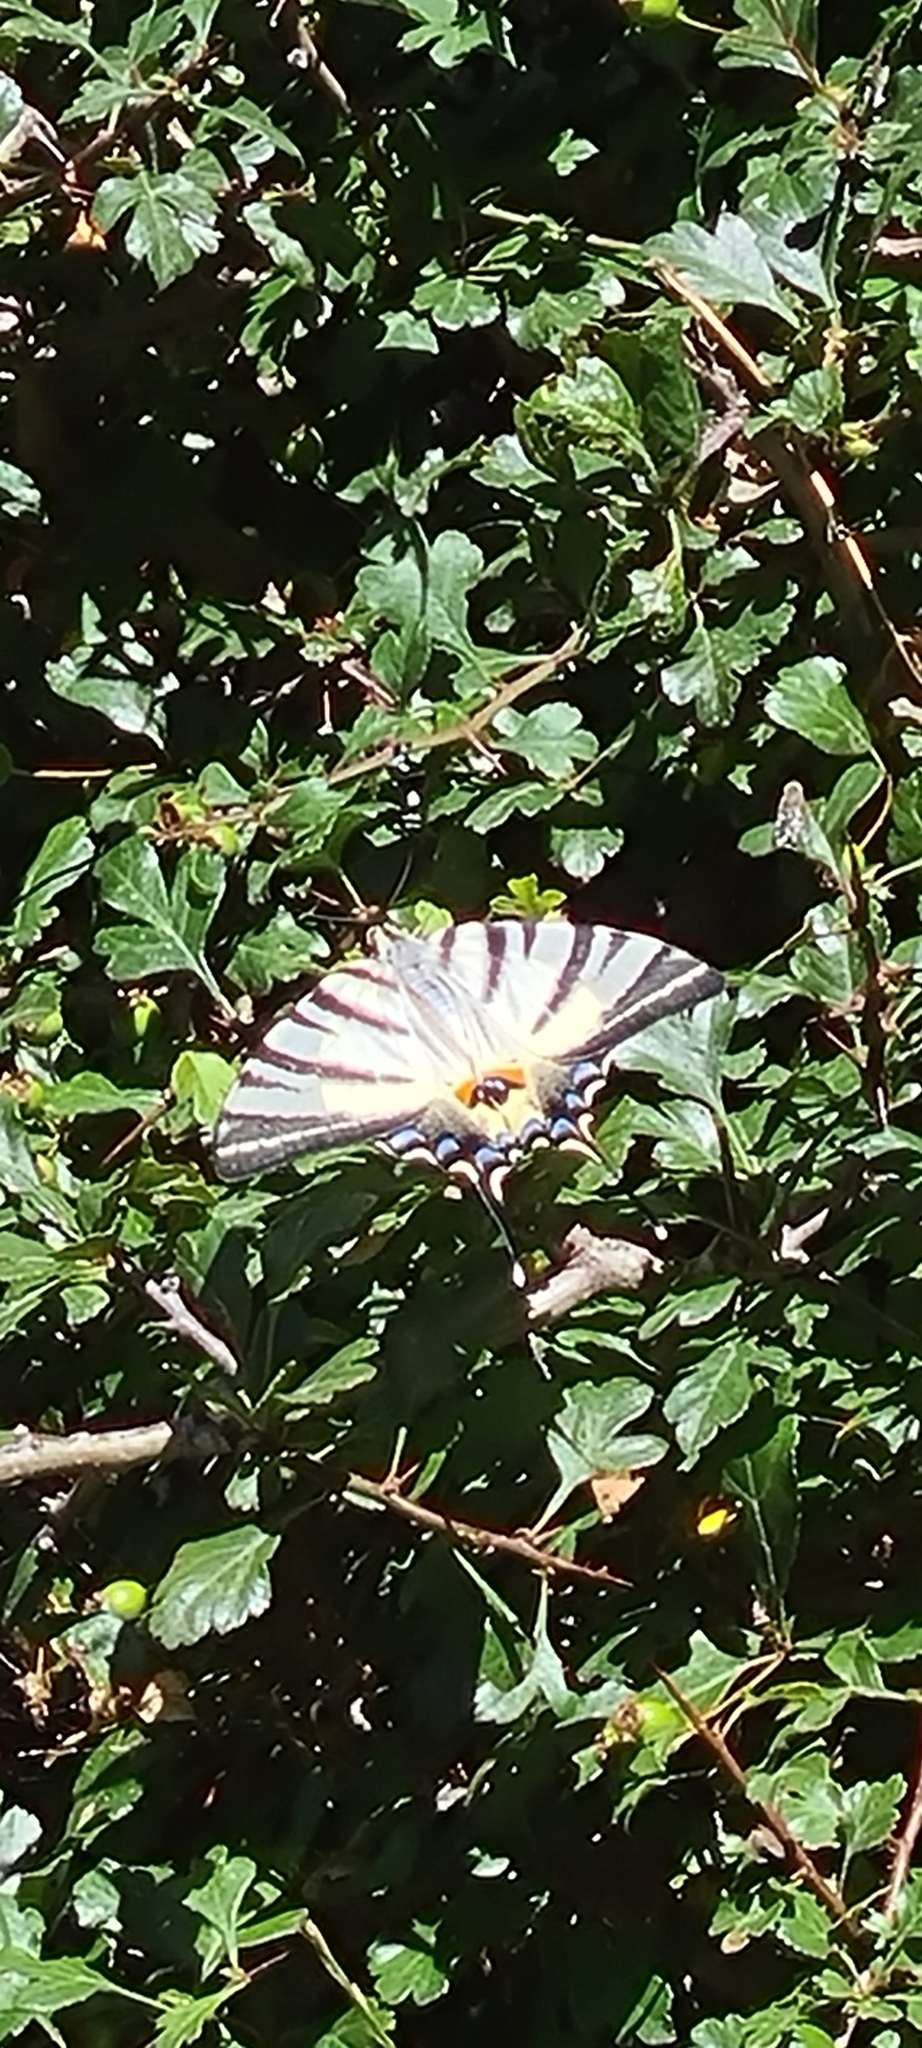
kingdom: Animalia
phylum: Arthropoda
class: Insecta
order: Lepidoptera
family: Papilionidae
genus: Iphiclides
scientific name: Iphiclides podalirius
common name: Scarce swallowtail
